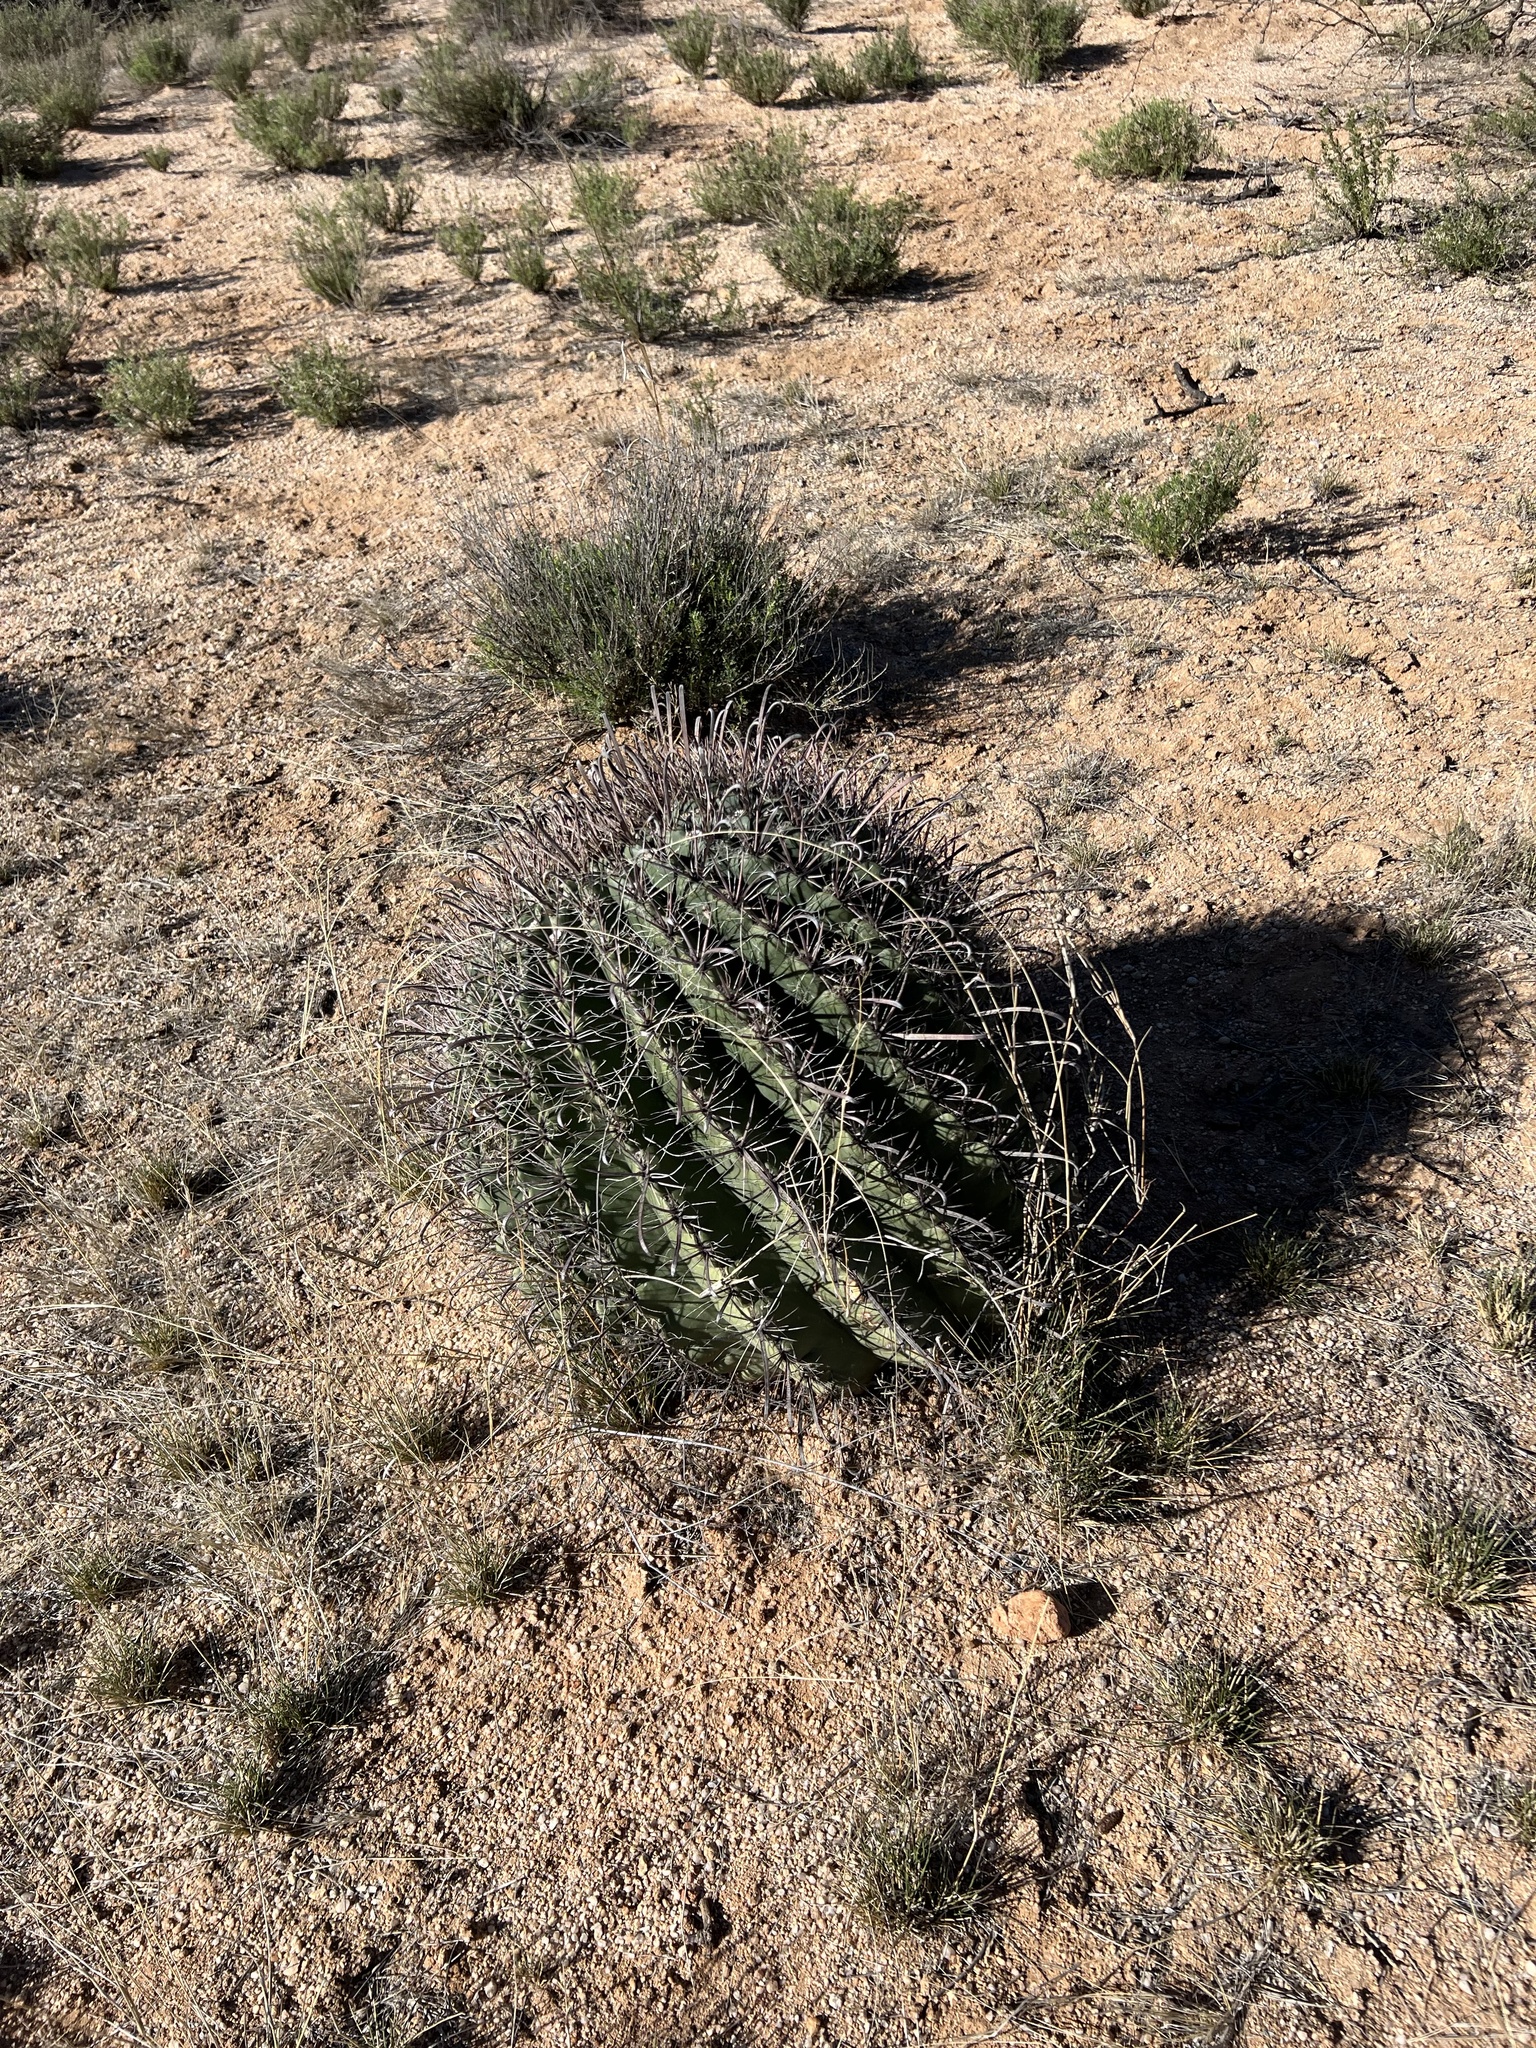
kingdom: Plantae
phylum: Tracheophyta
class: Magnoliopsida
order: Caryophyllales
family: Cactaceae
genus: Ferocactus
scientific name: Ferocactus wislizeni
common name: Candy barrel cactus
